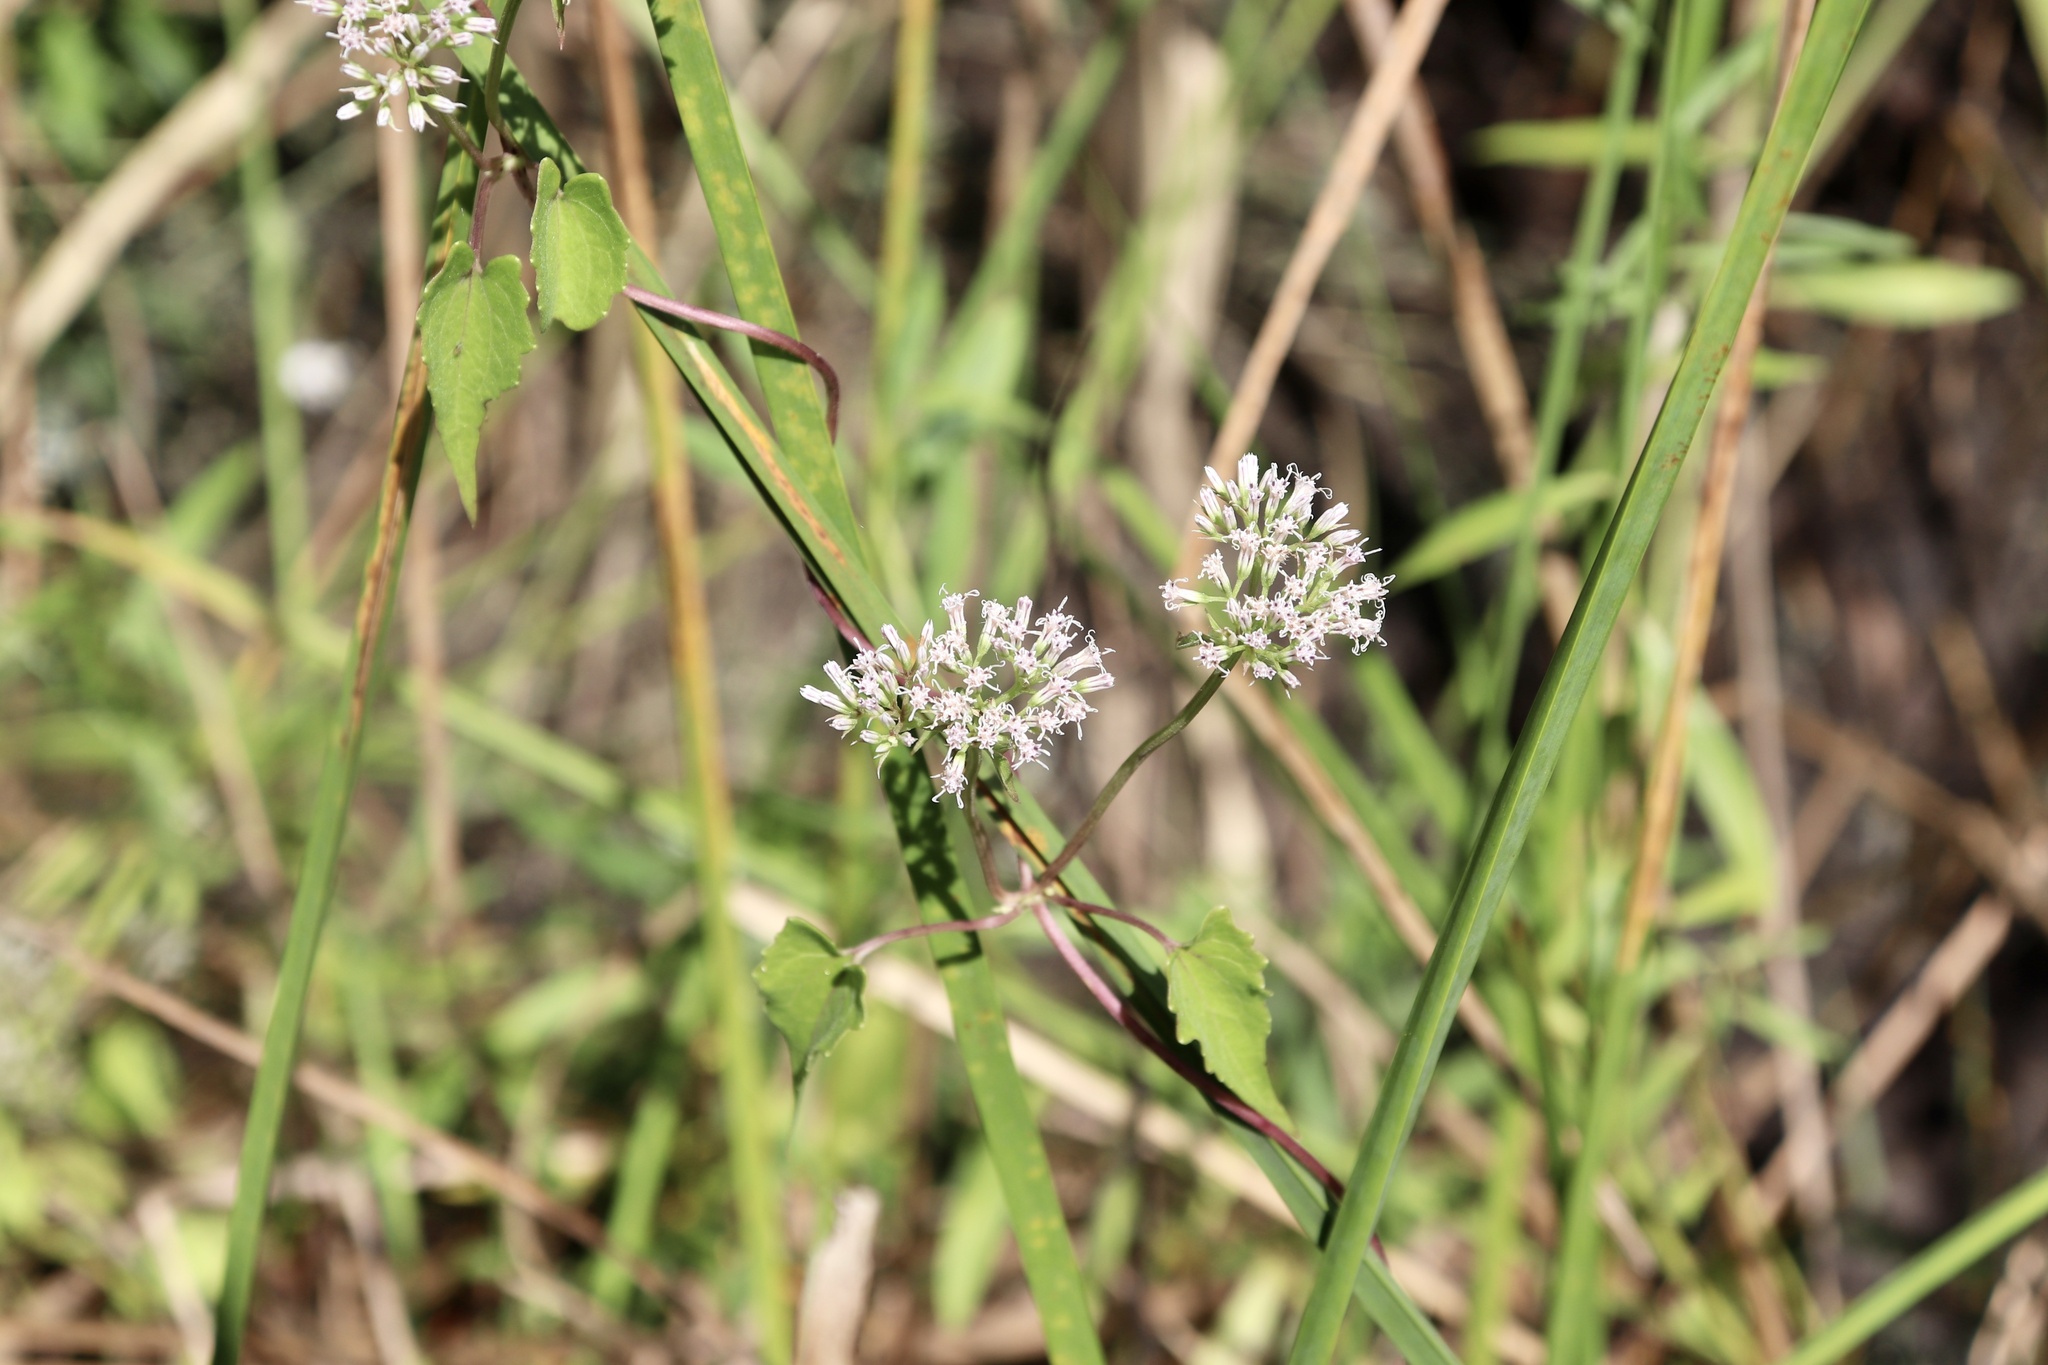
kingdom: Plantae
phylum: Tracheophyta
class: Magnoliopsida
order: Asterales
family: Asteraceae
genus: Mikania
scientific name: Mikania scandens
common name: Climbing hempvine
